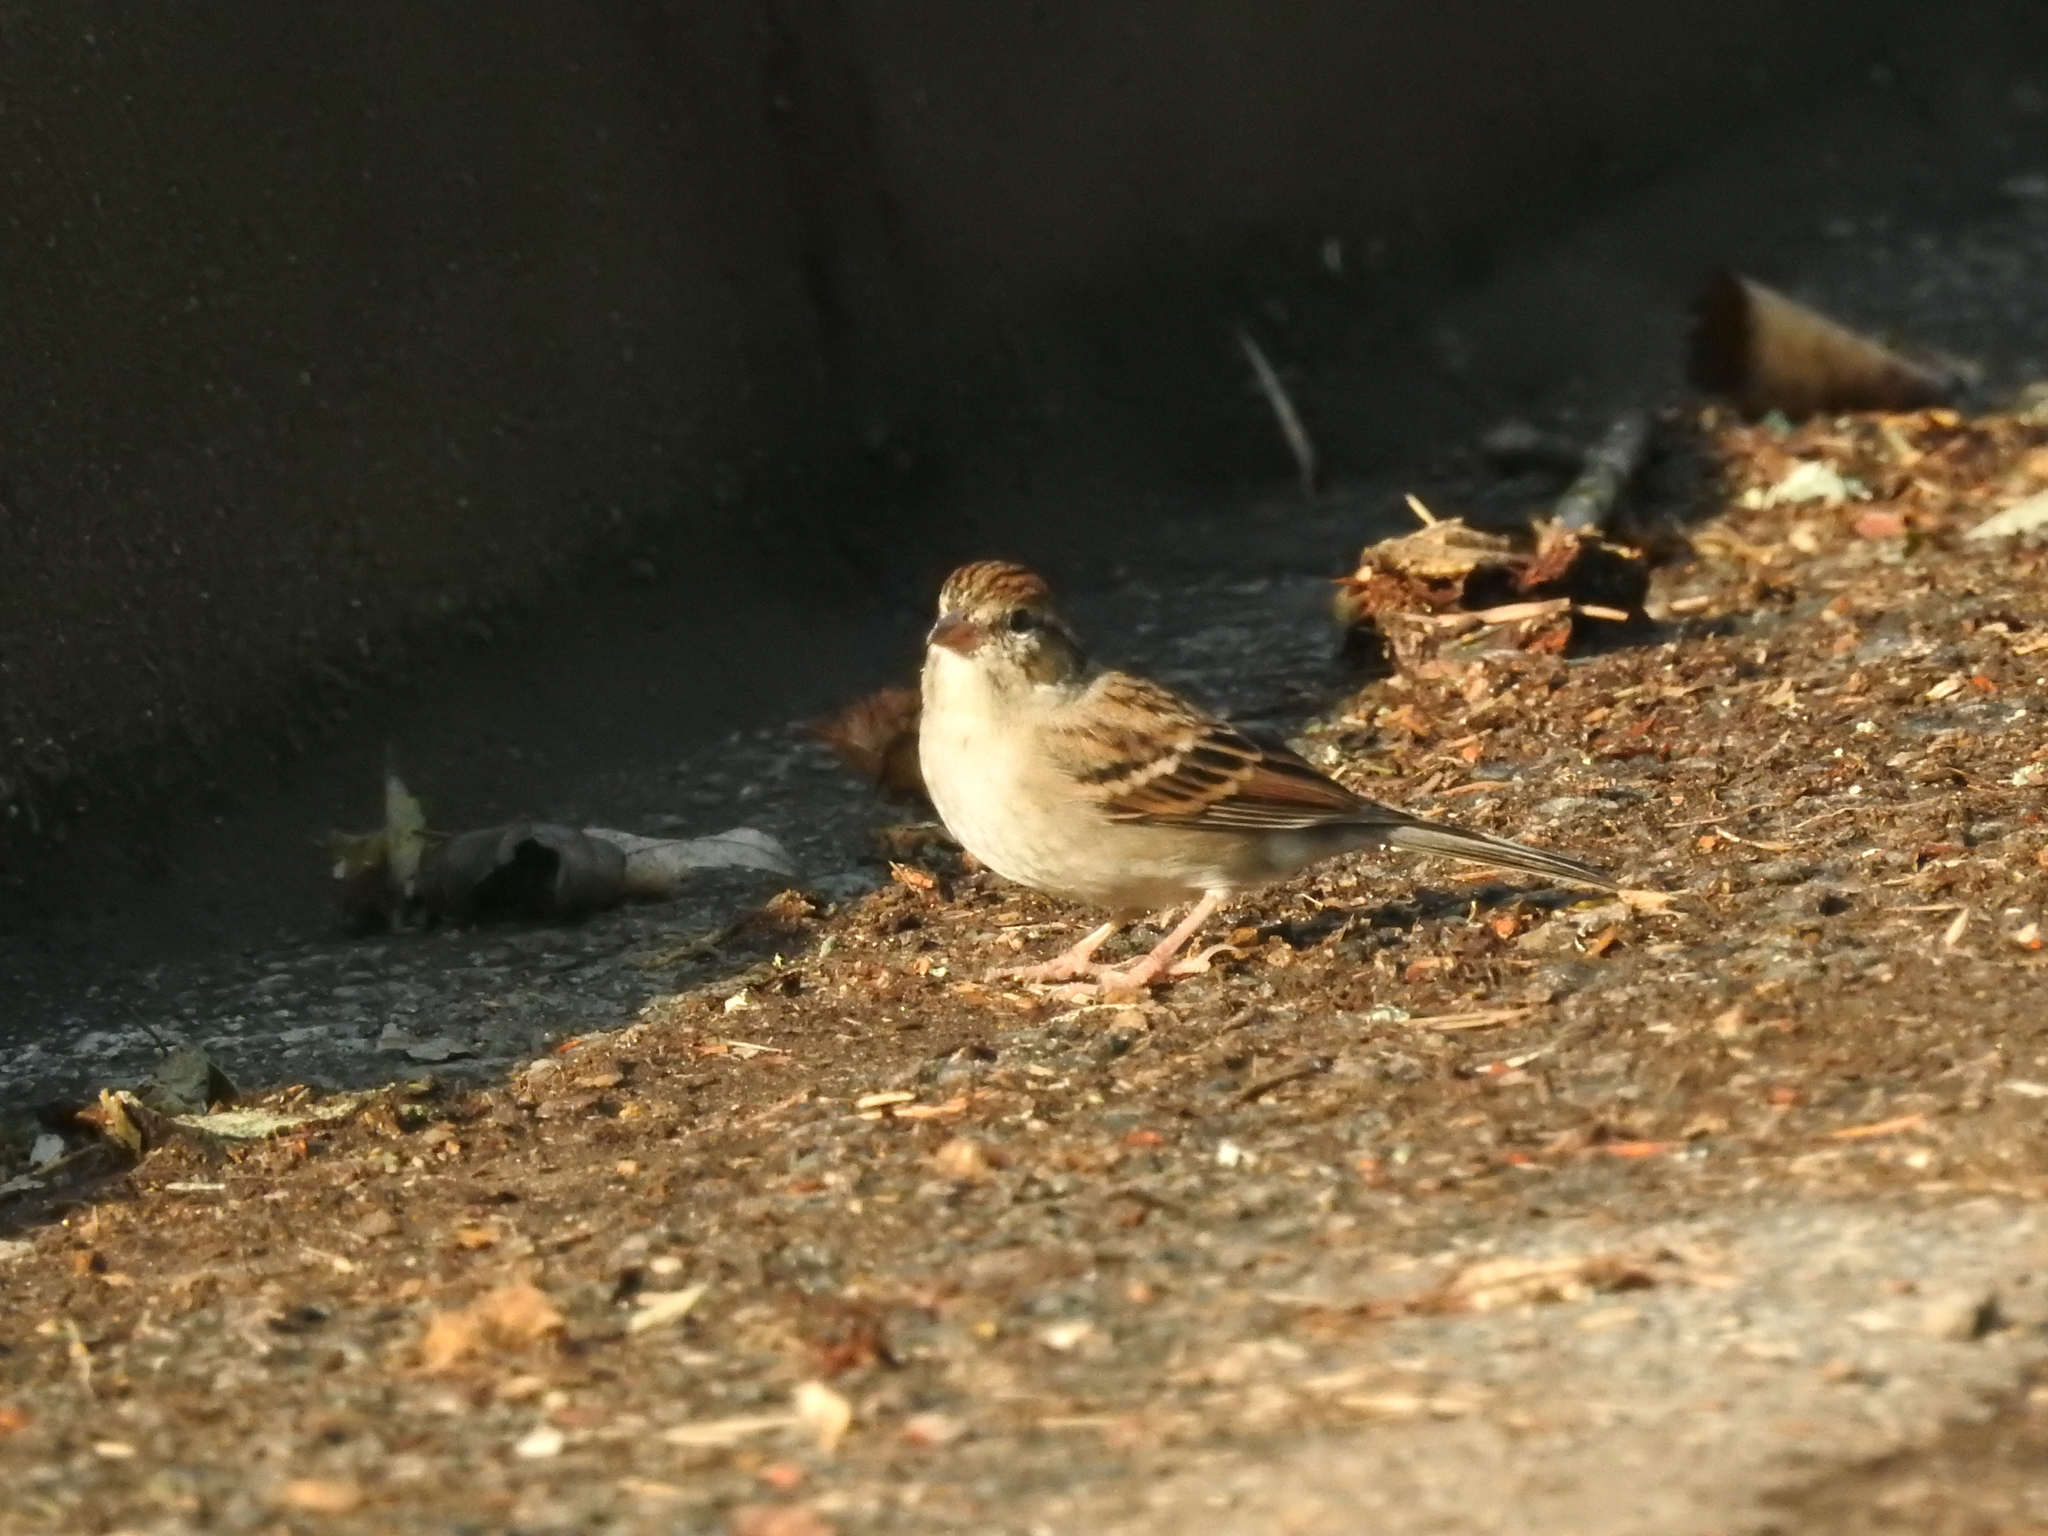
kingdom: Animalia
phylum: Chordata
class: Aves
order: Passeriformes
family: Passerellidae
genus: Spizella
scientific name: Spizella passerina
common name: Chipping sparrow
